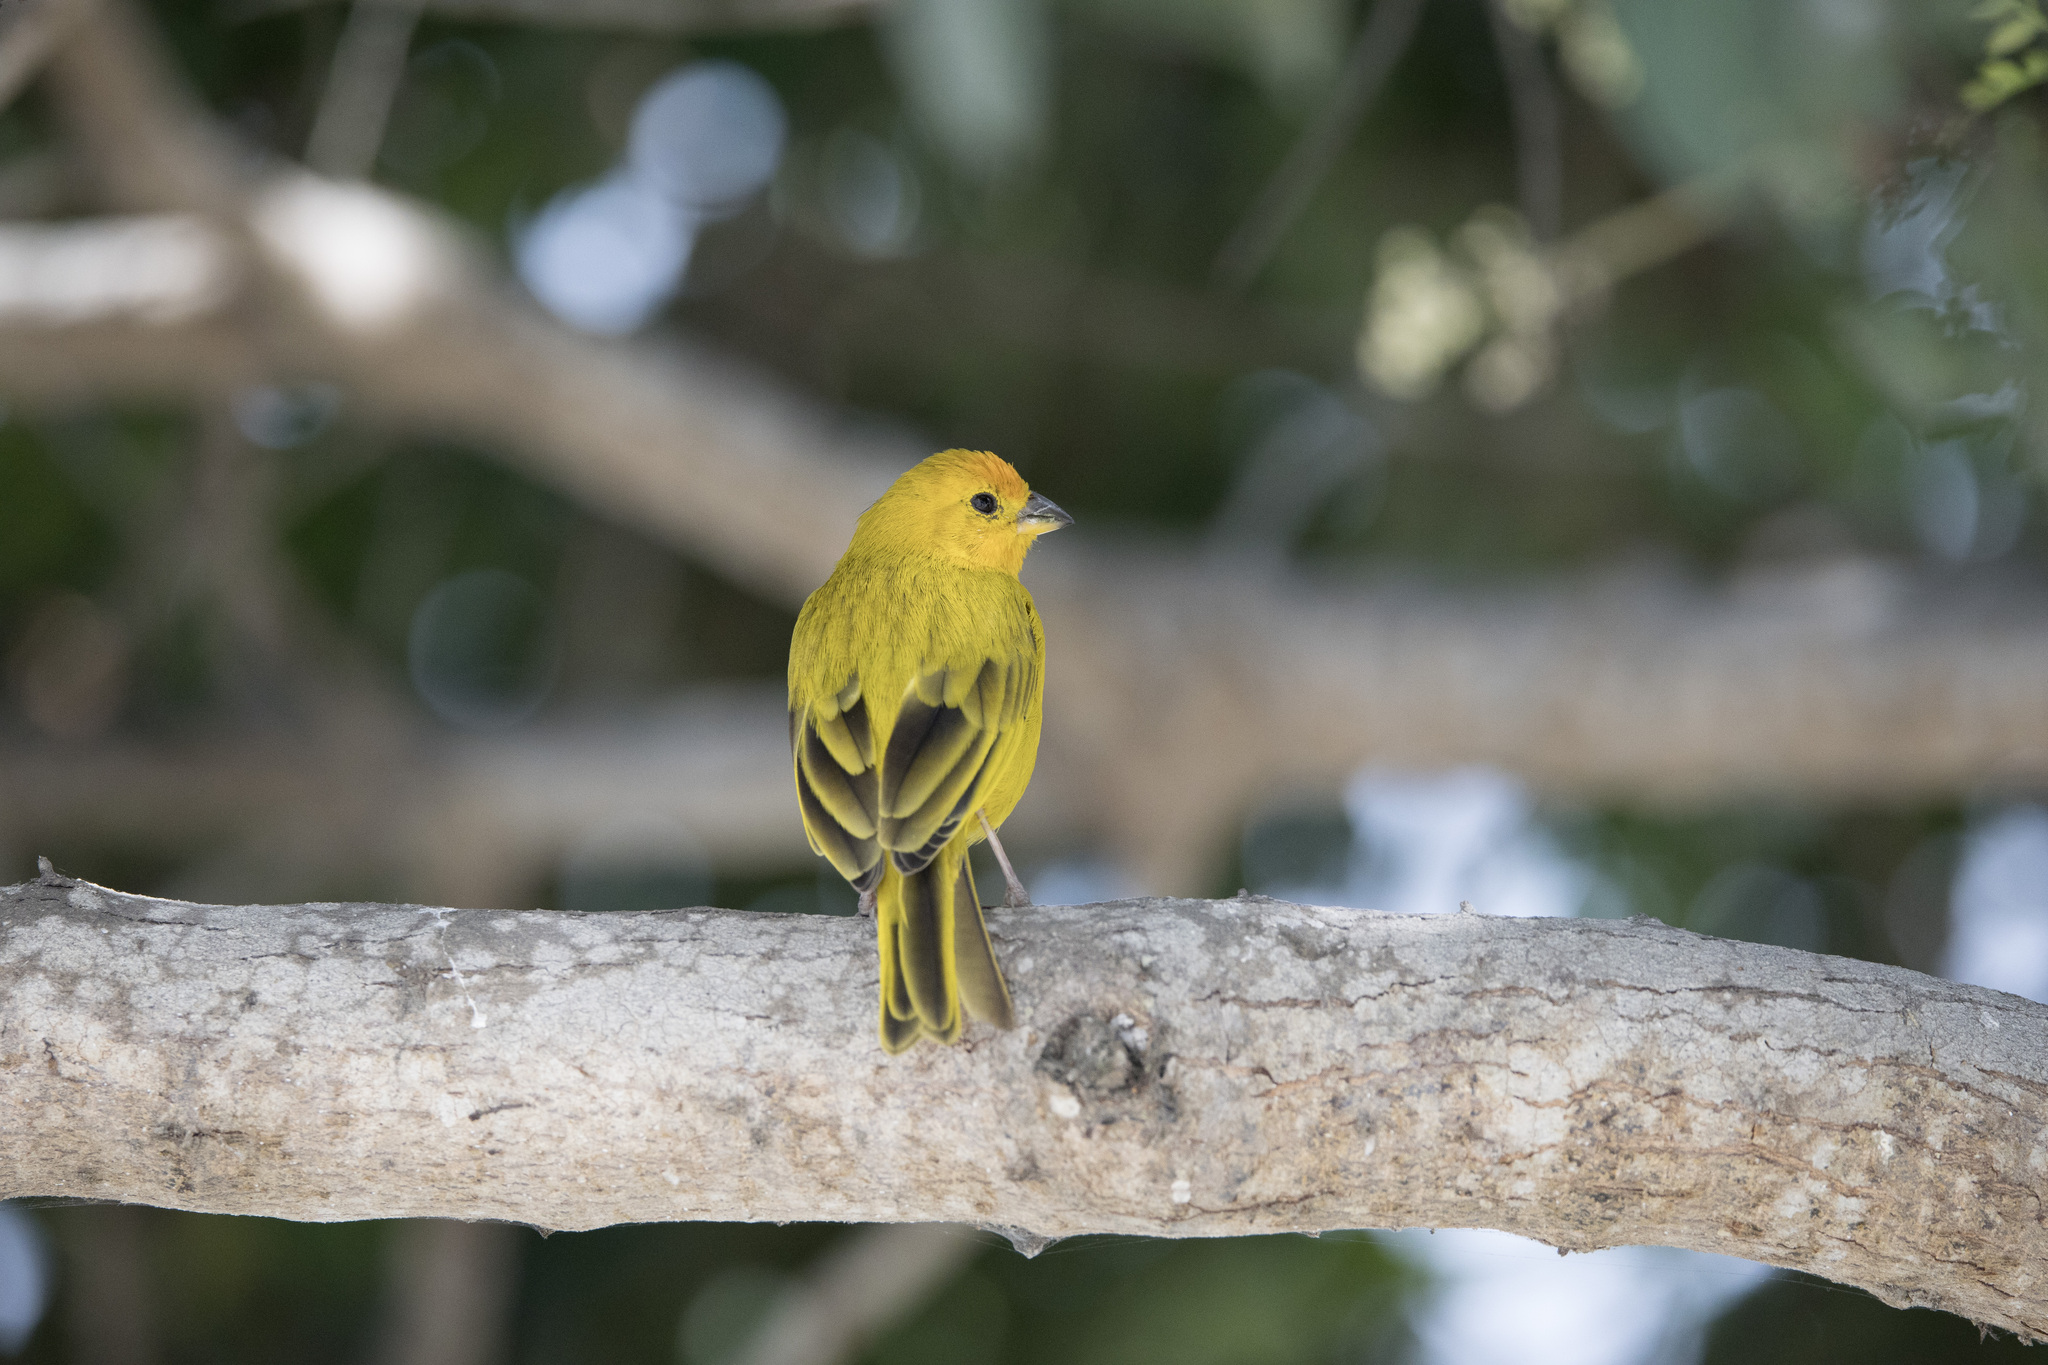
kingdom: Animalia
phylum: Chordata
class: Aves
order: Passeriformes
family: Thraupidae
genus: Sicalis
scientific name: Sicalis flaveola
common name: Saffron finch
